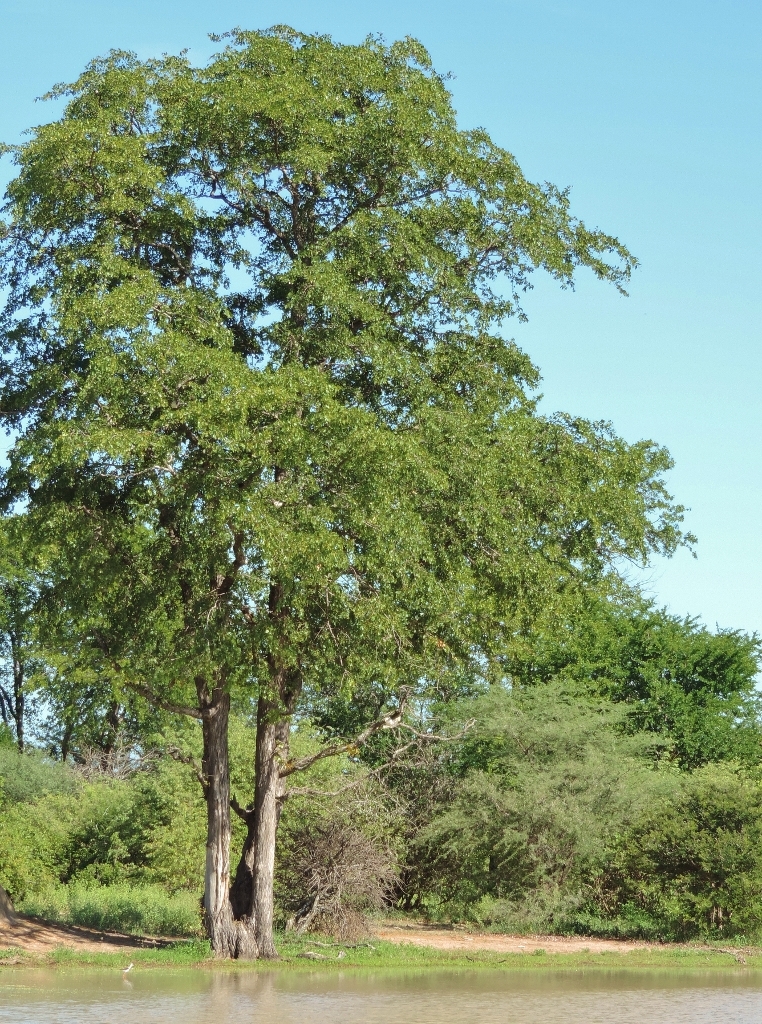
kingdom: Plantae
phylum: Tracheophyta
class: Magnoliopsida
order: Fabales
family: Fabaceae
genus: Colophospermum
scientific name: Colophospermum mopane
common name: Mopane
